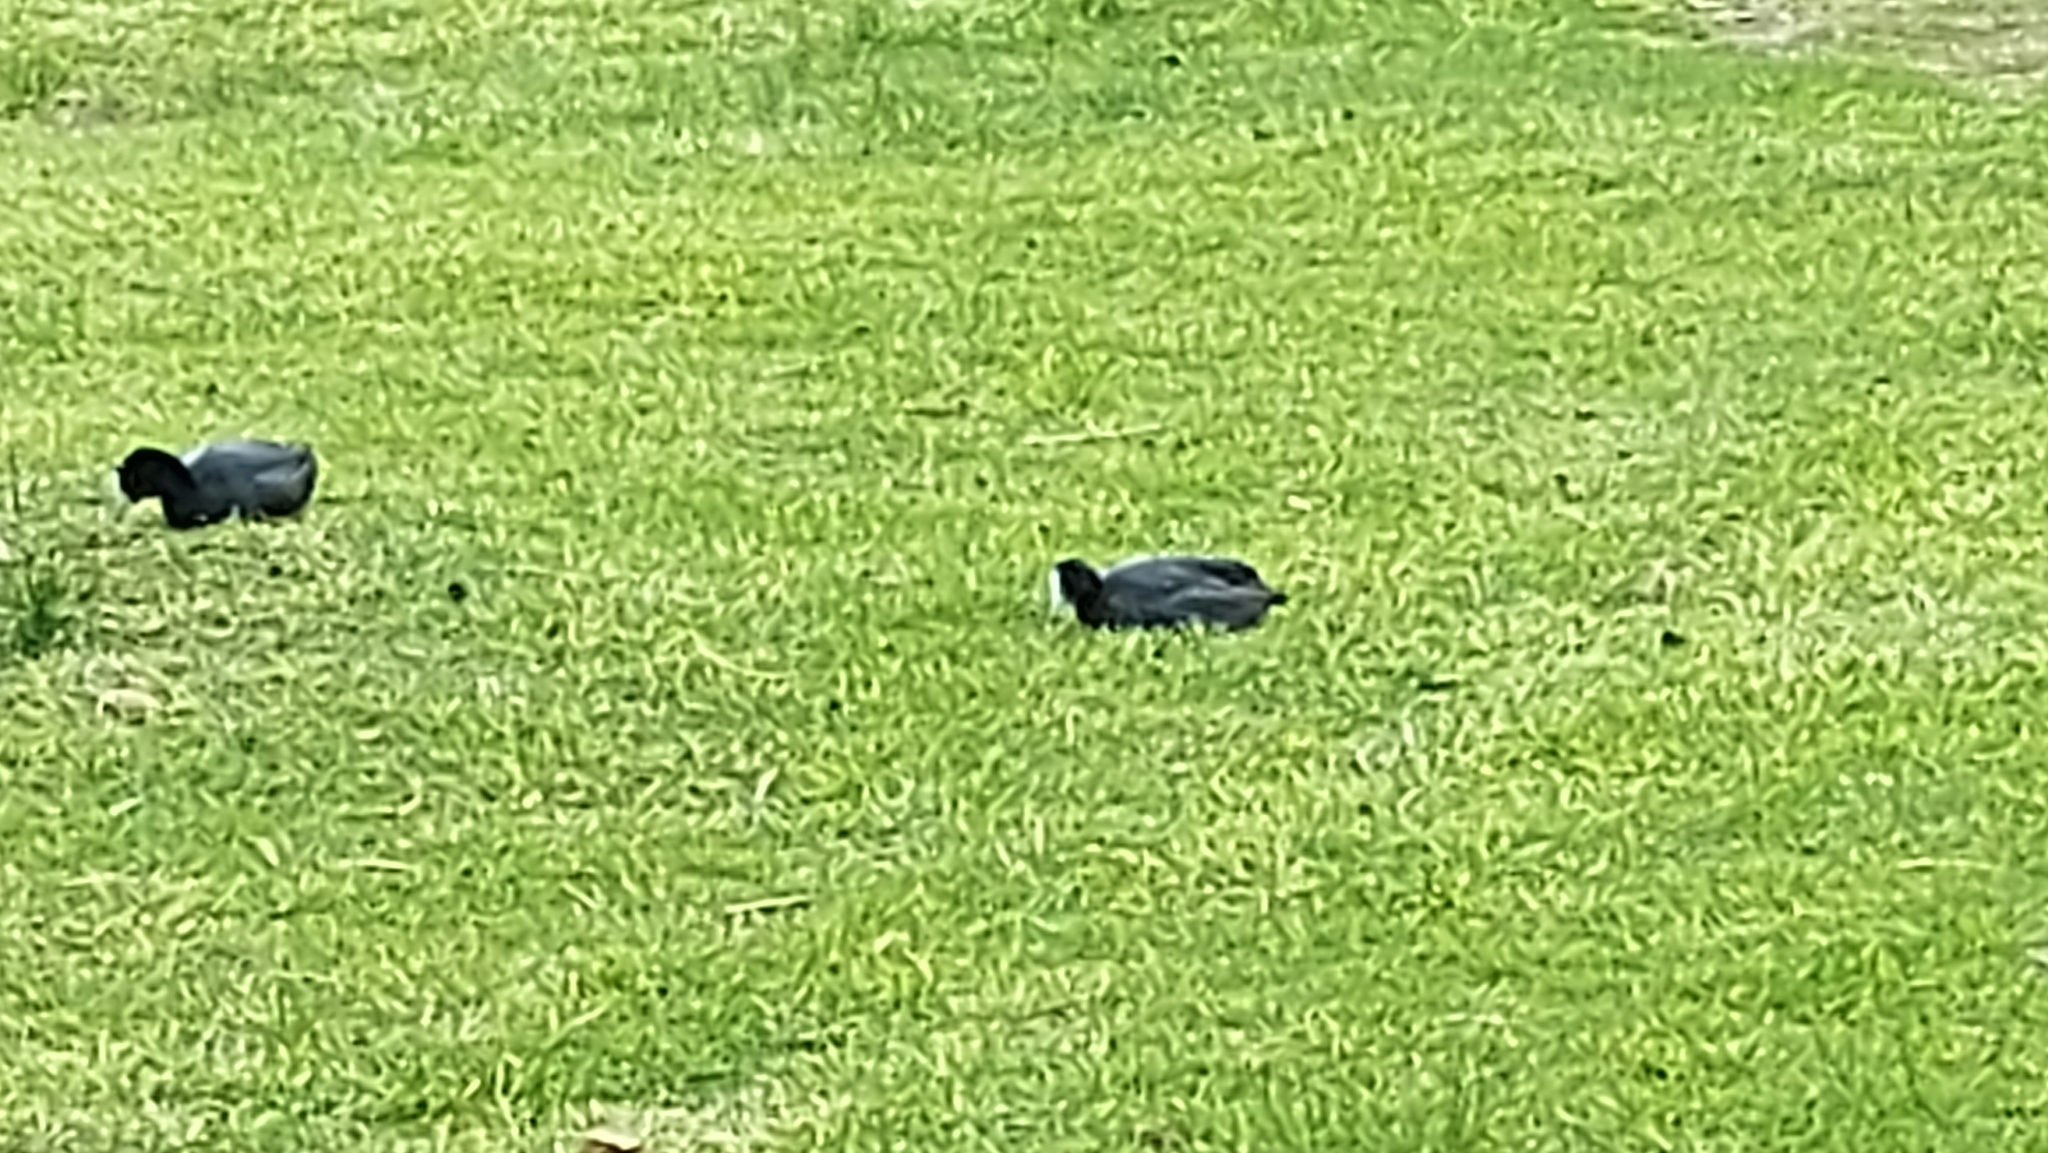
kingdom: Animalia
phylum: Chordata
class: Aves
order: Gruiformes
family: Rallidae
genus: Fulica
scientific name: Fulica atra
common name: Eurasian coot
